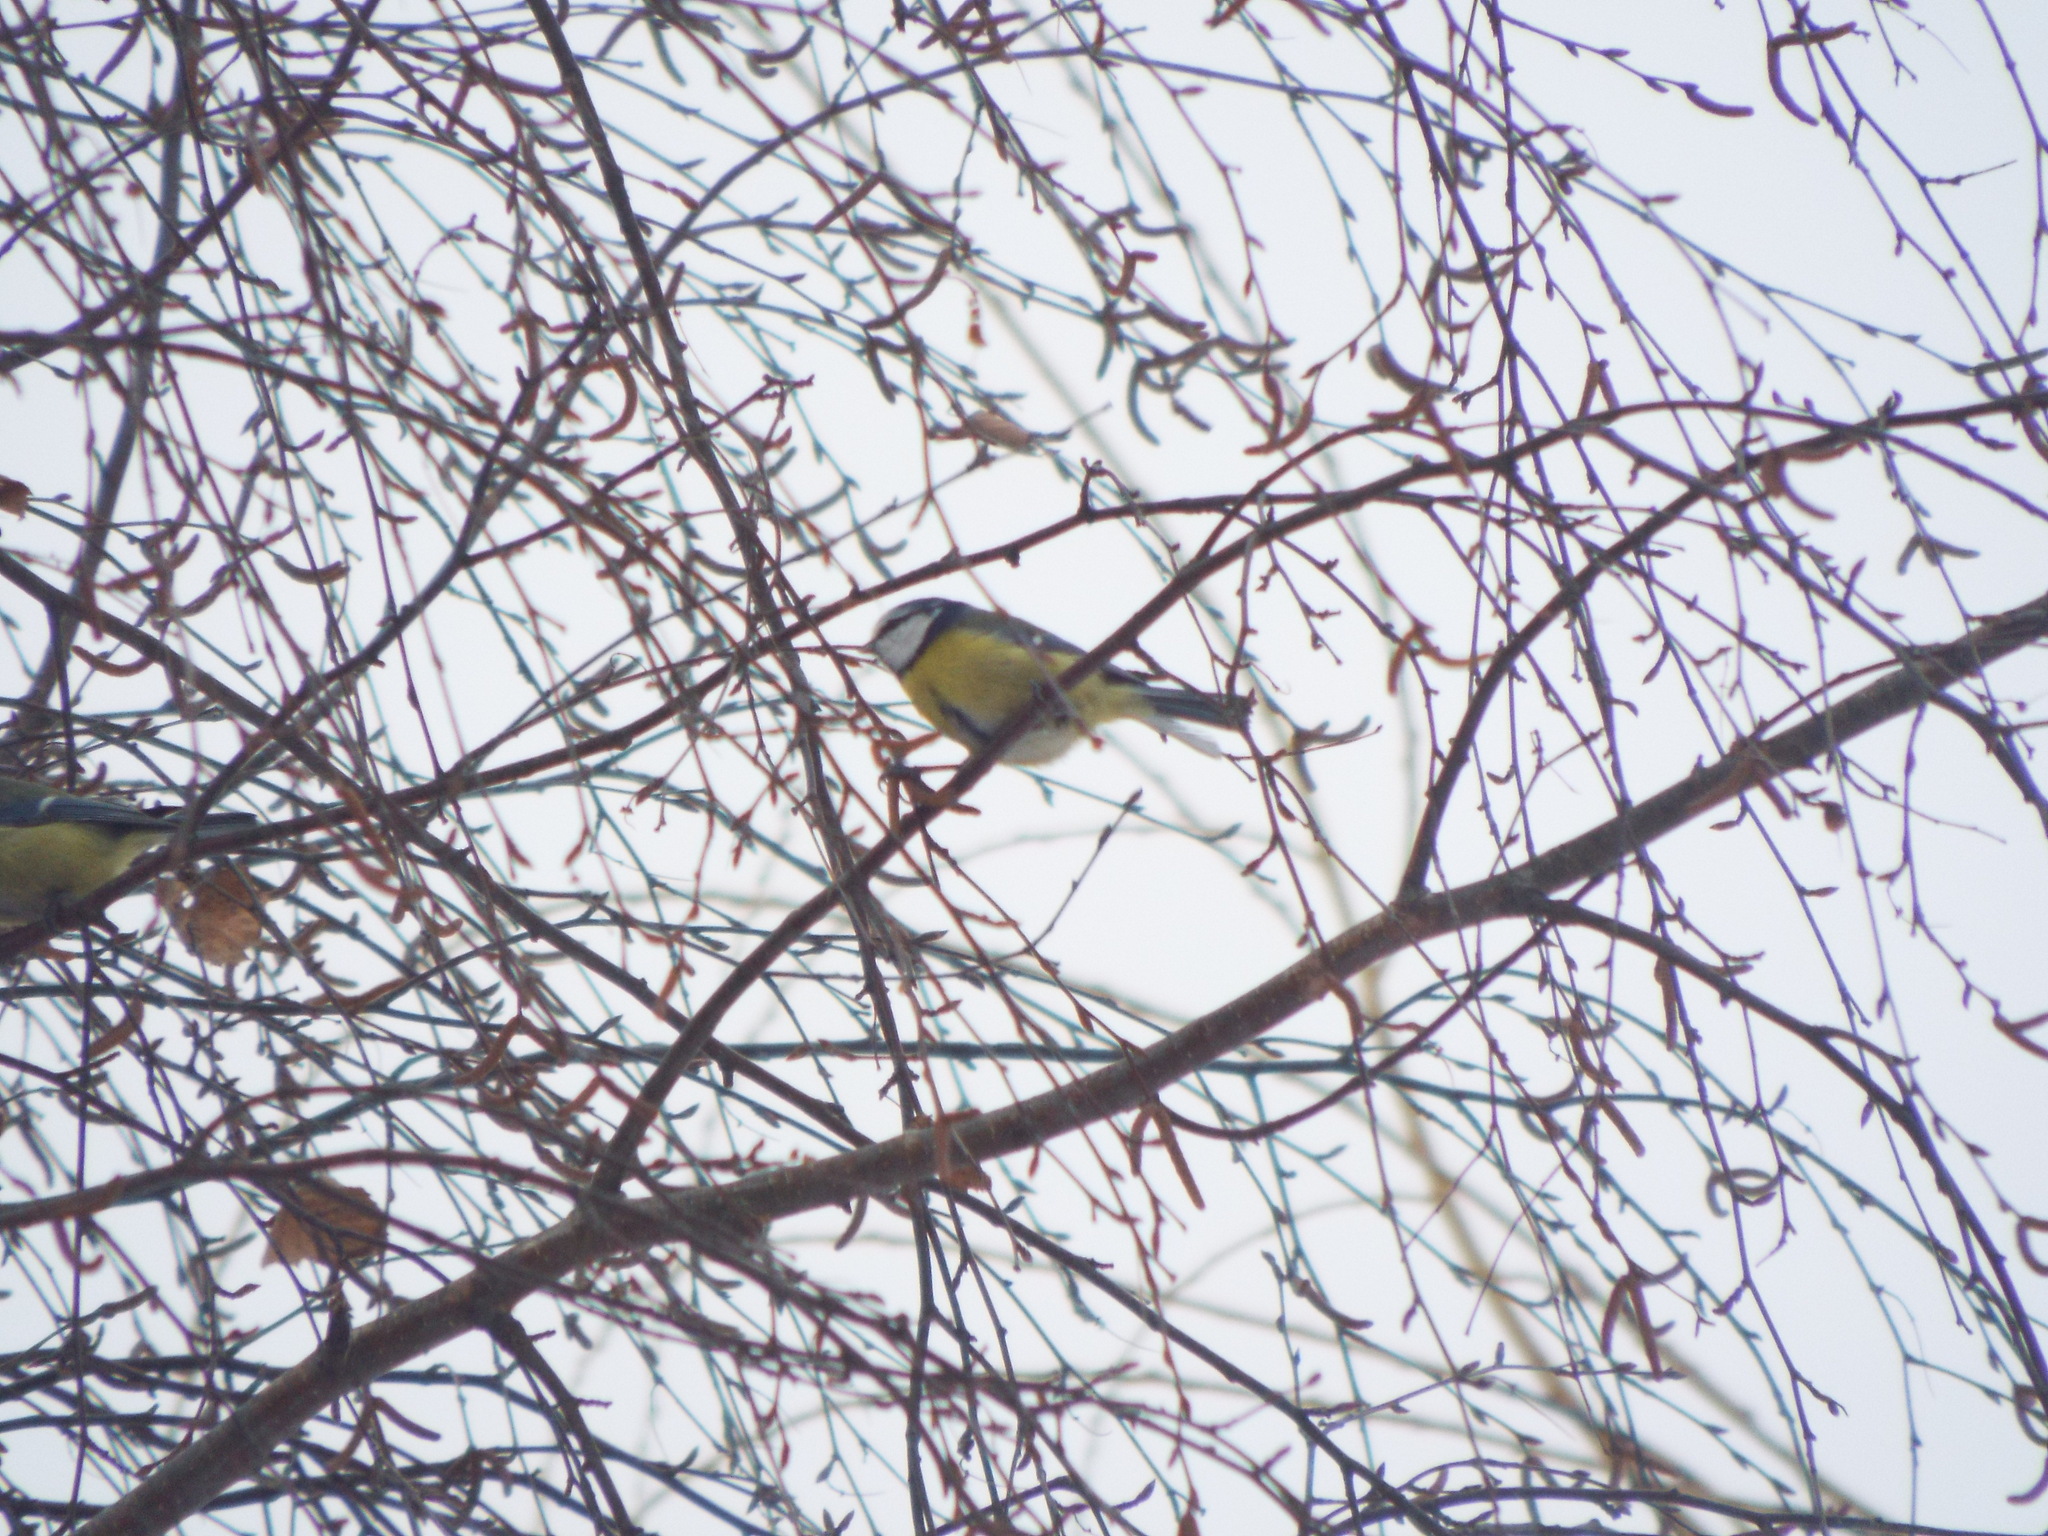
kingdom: Animalia
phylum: Chordata
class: Aves
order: Passeriformes
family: Paridae
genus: Cyanistes
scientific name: Cyanistes caeruleus
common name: Eurasian blue tit
